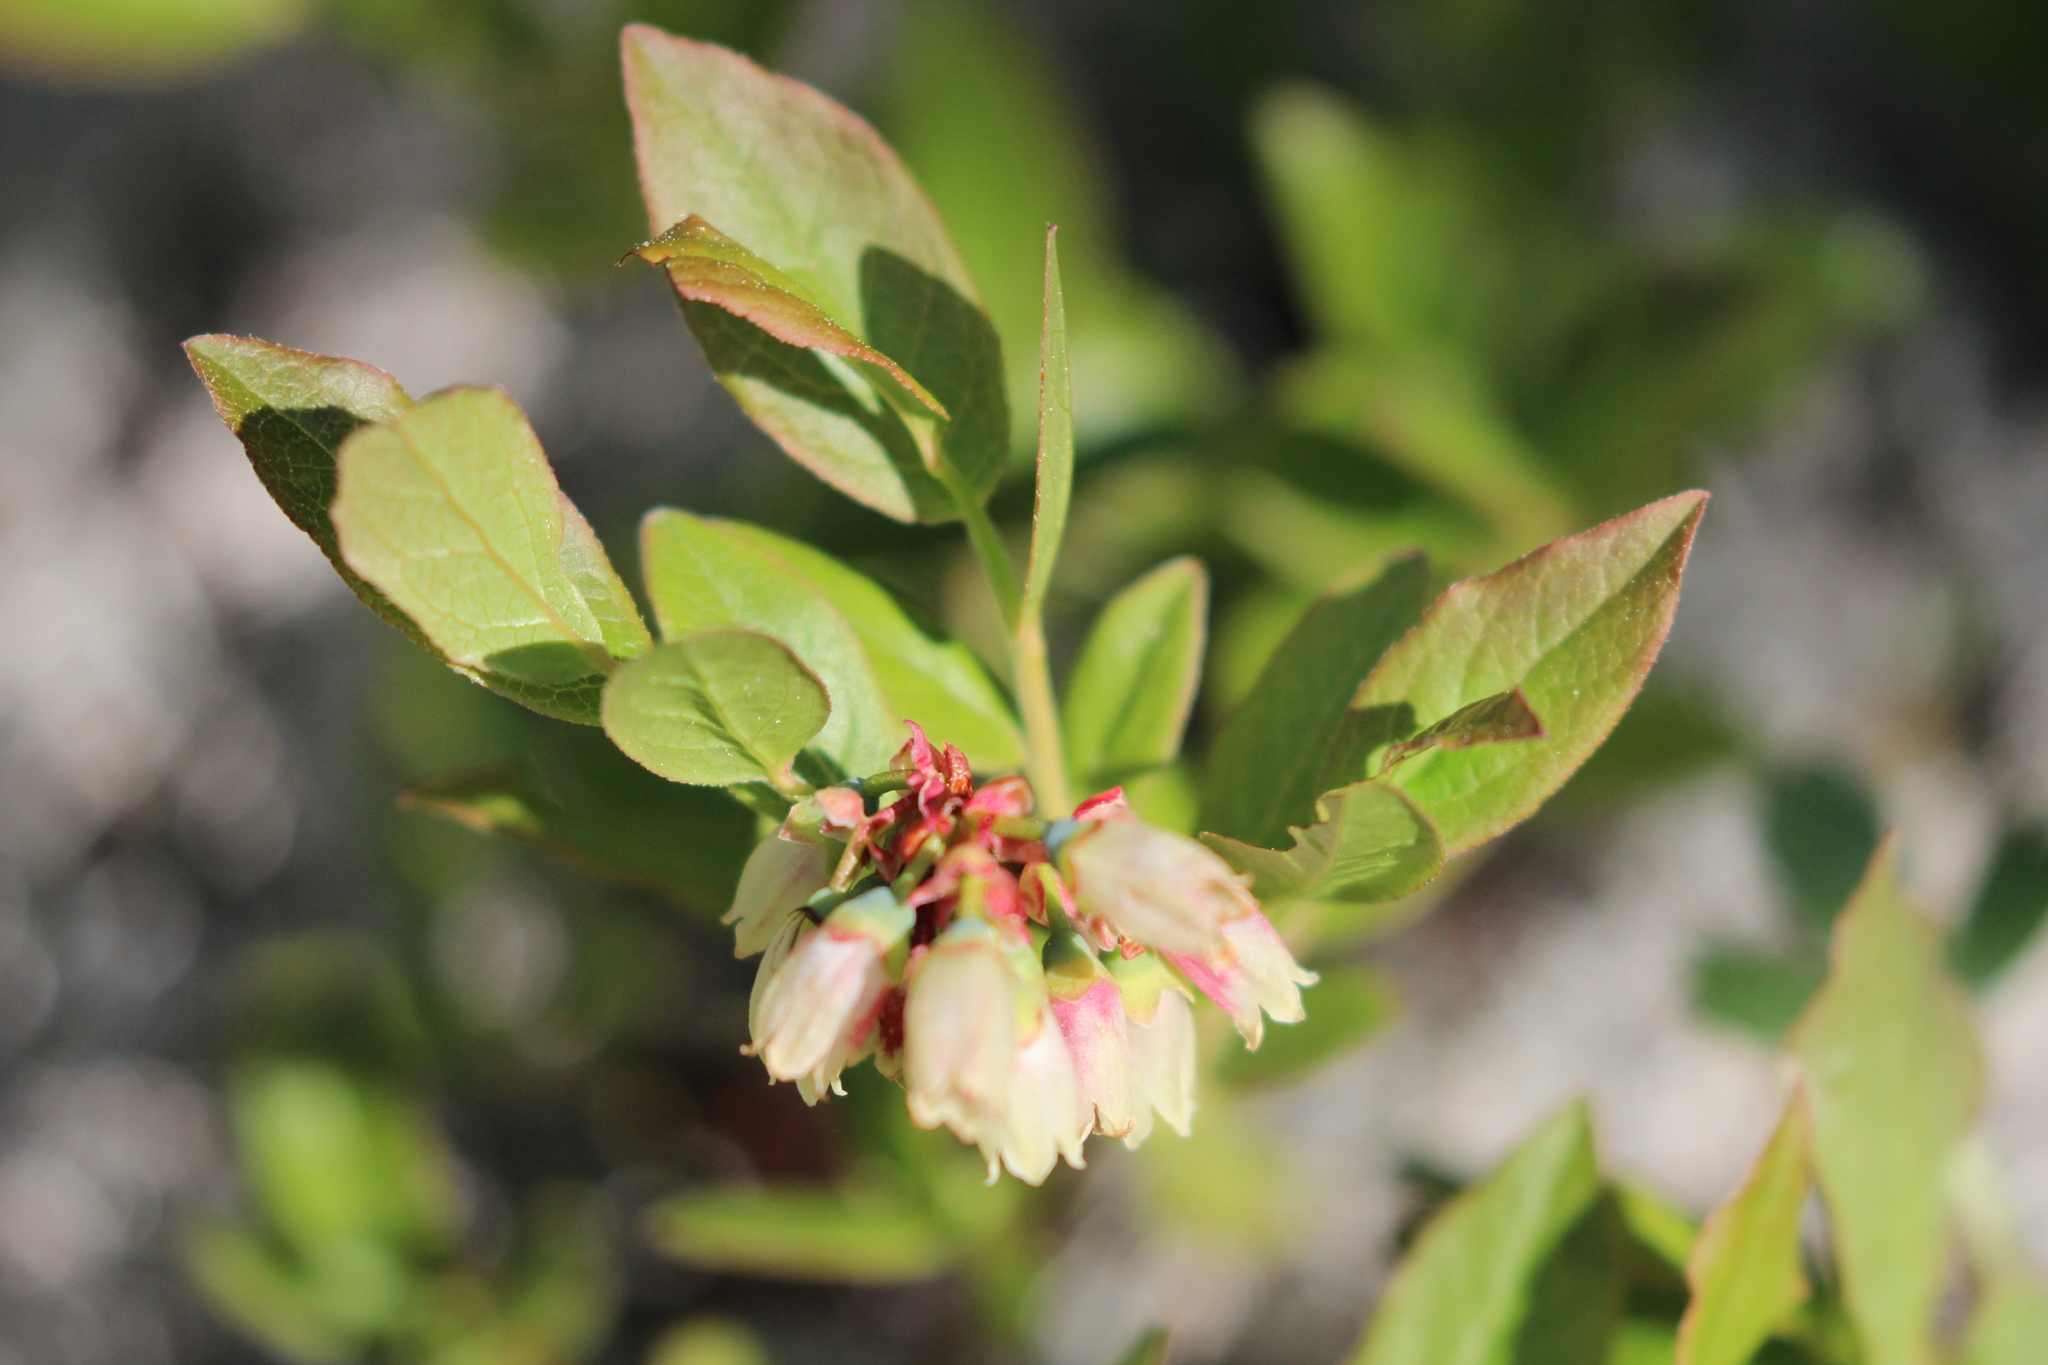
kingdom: Plantae
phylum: Tracheophyta
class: Magnoliopsida
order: Ericales
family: Ericaceae
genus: Vaccinium
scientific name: Vaccinium angustifolium
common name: Early lowbush blueberry
